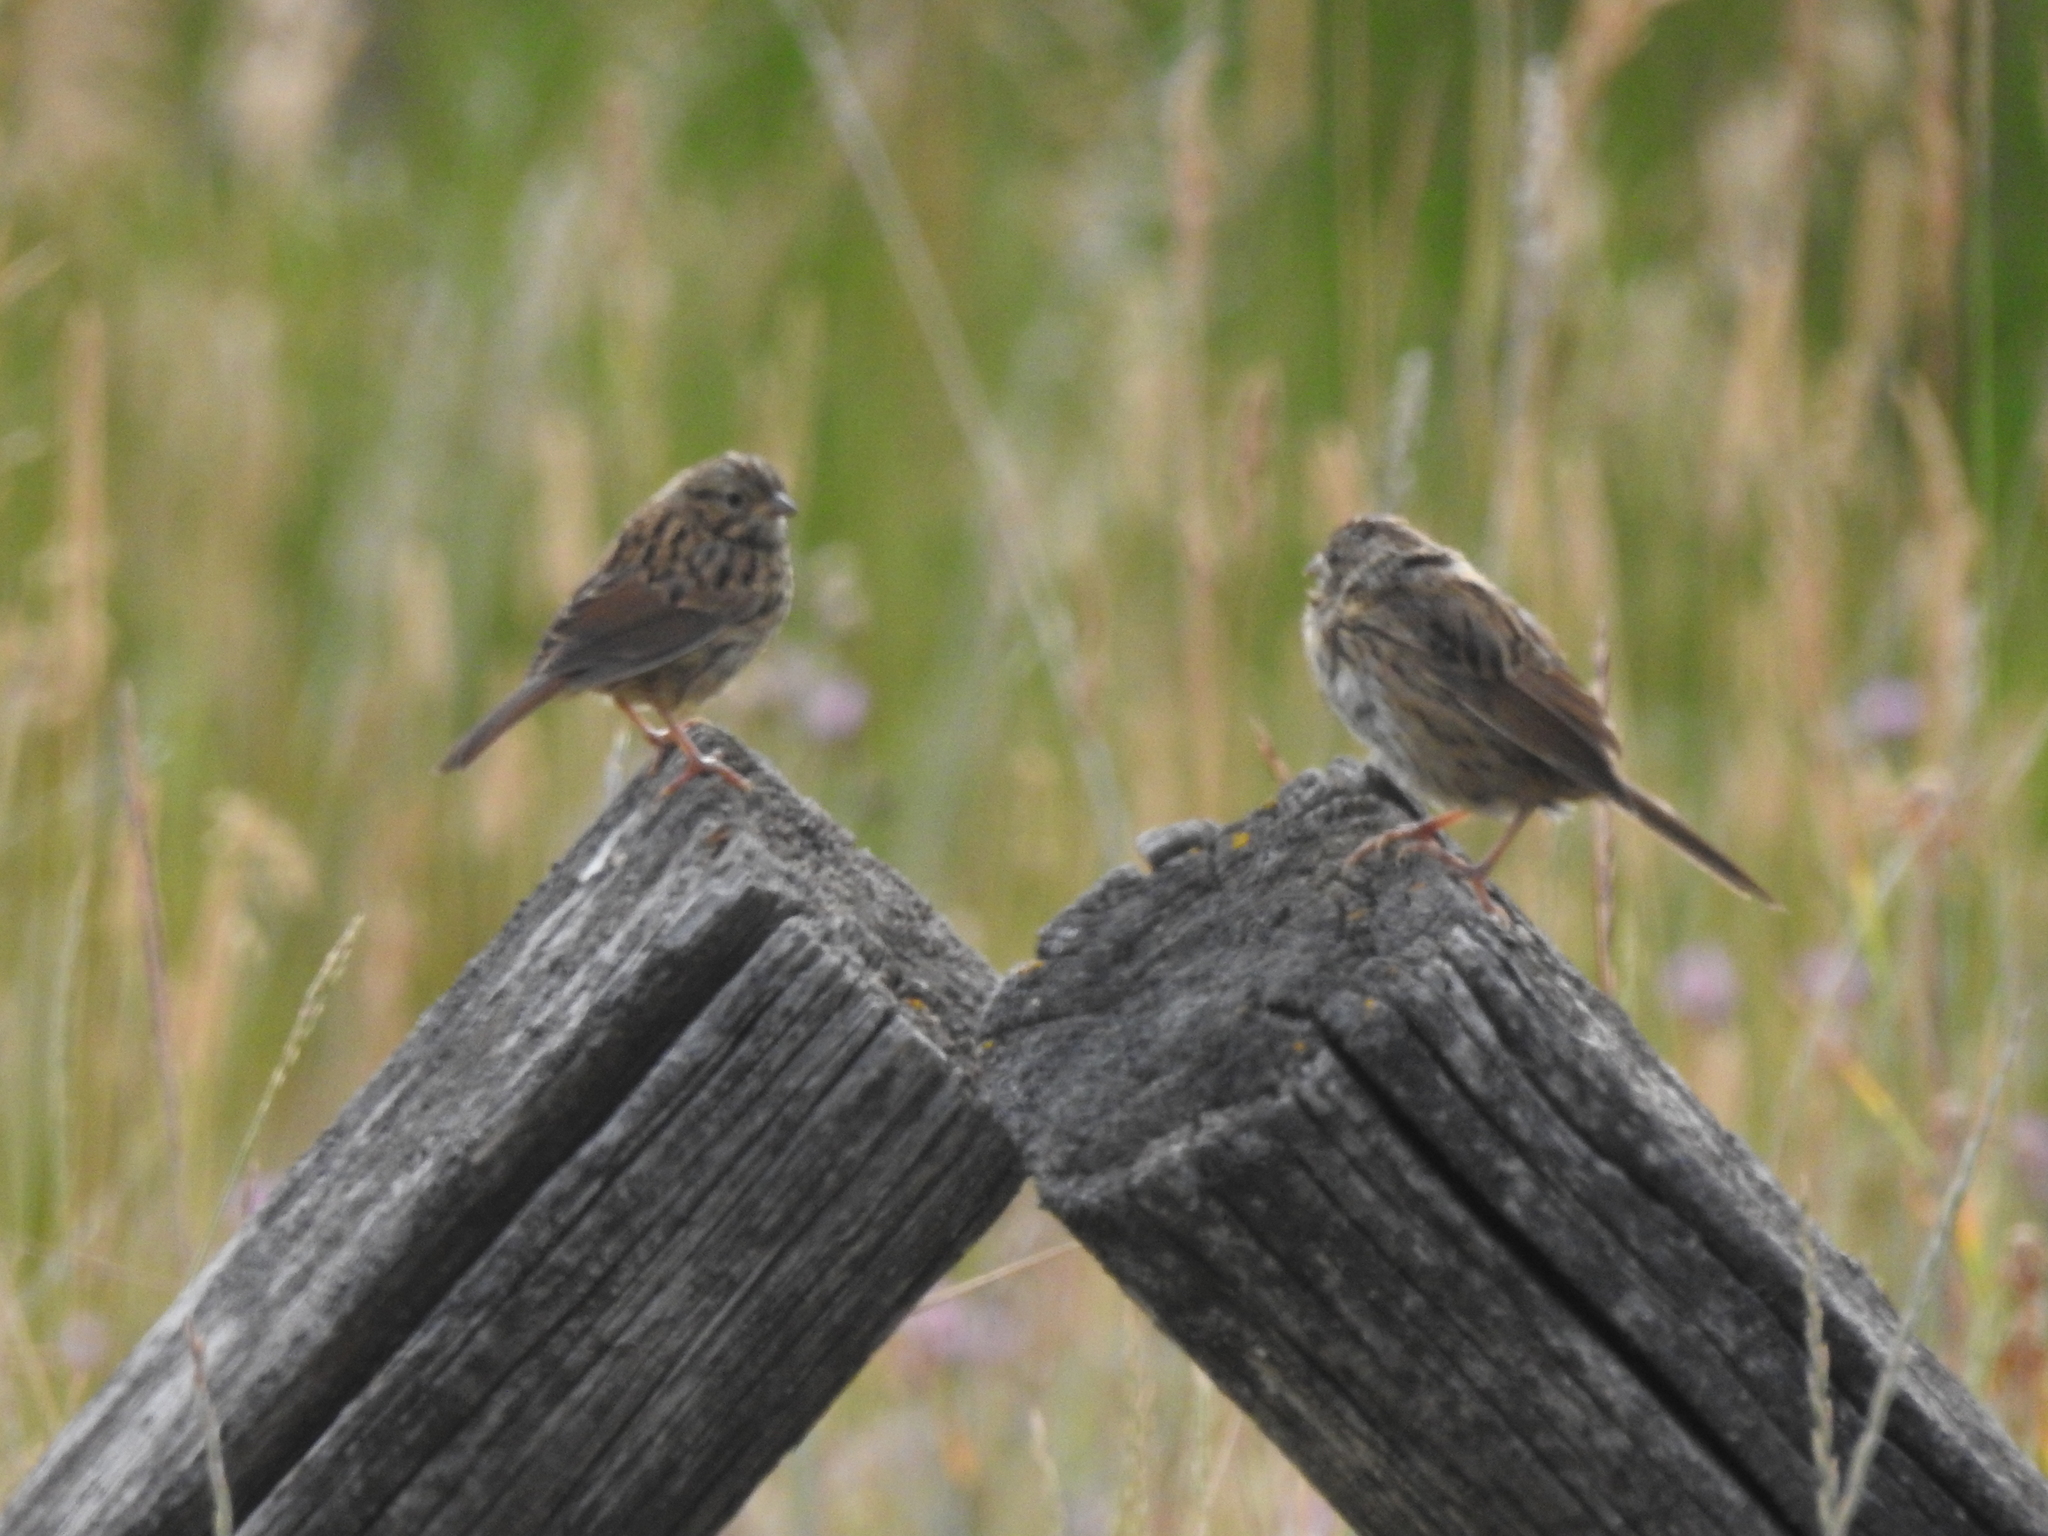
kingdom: Animalia
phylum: Chordata
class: Aves
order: Passeriformes
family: Passerellidae
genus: Melospiza
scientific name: Melospiza lincolnii
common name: Lincoln's sparrow
